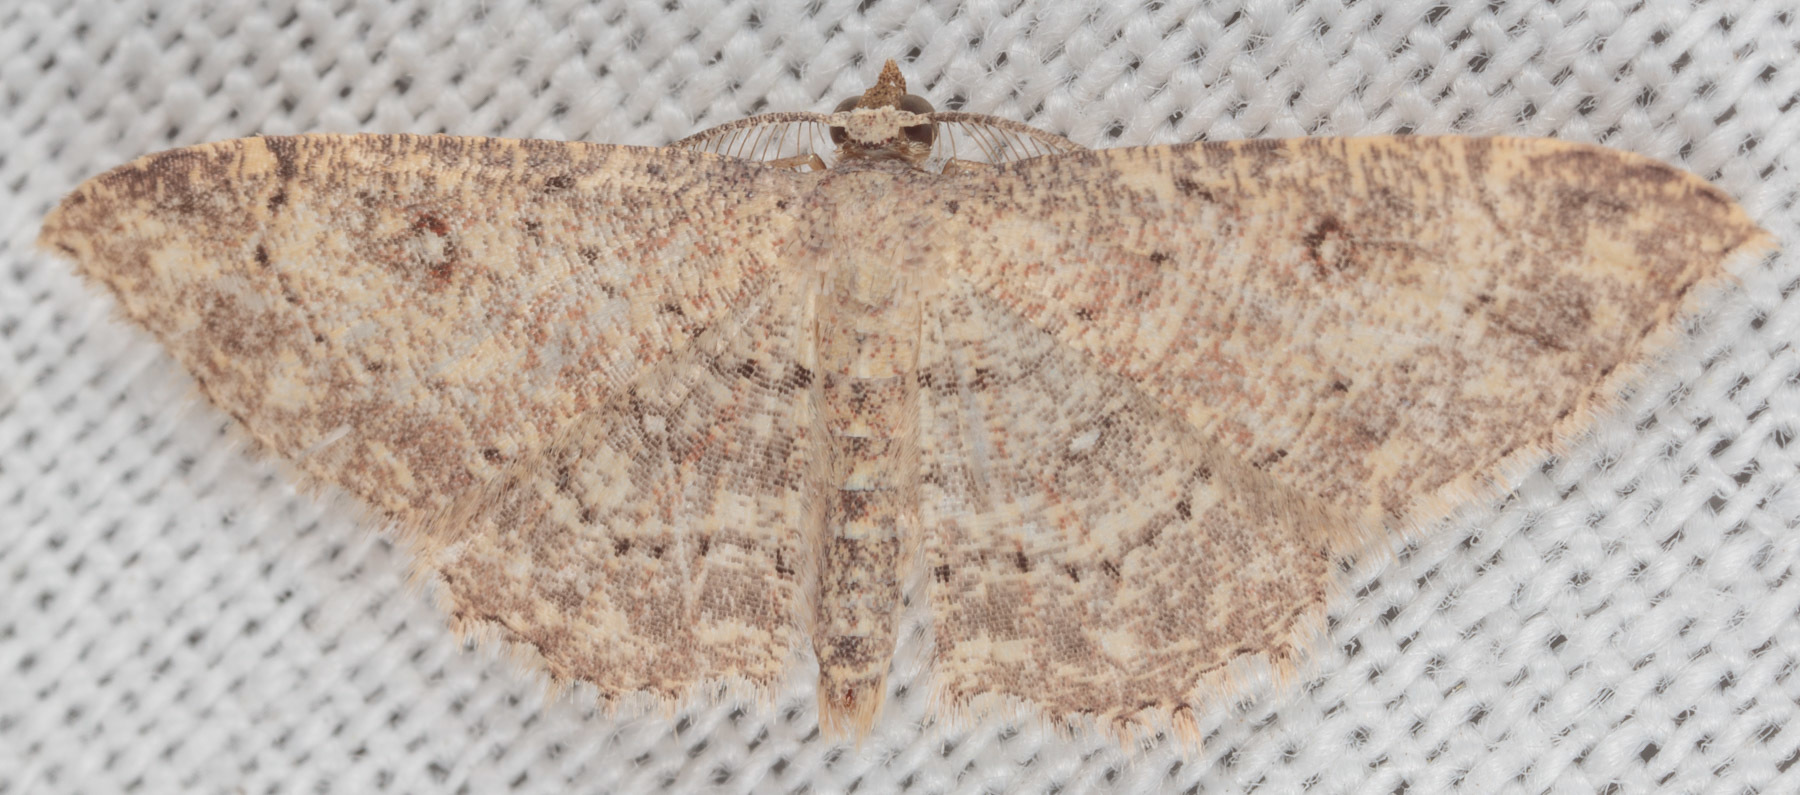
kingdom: Animalia
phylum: Arthropoda
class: Insecta
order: Lepidoptera
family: Geometridae
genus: Cyclophora
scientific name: Cyclophora nanaria
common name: Cankerworm
